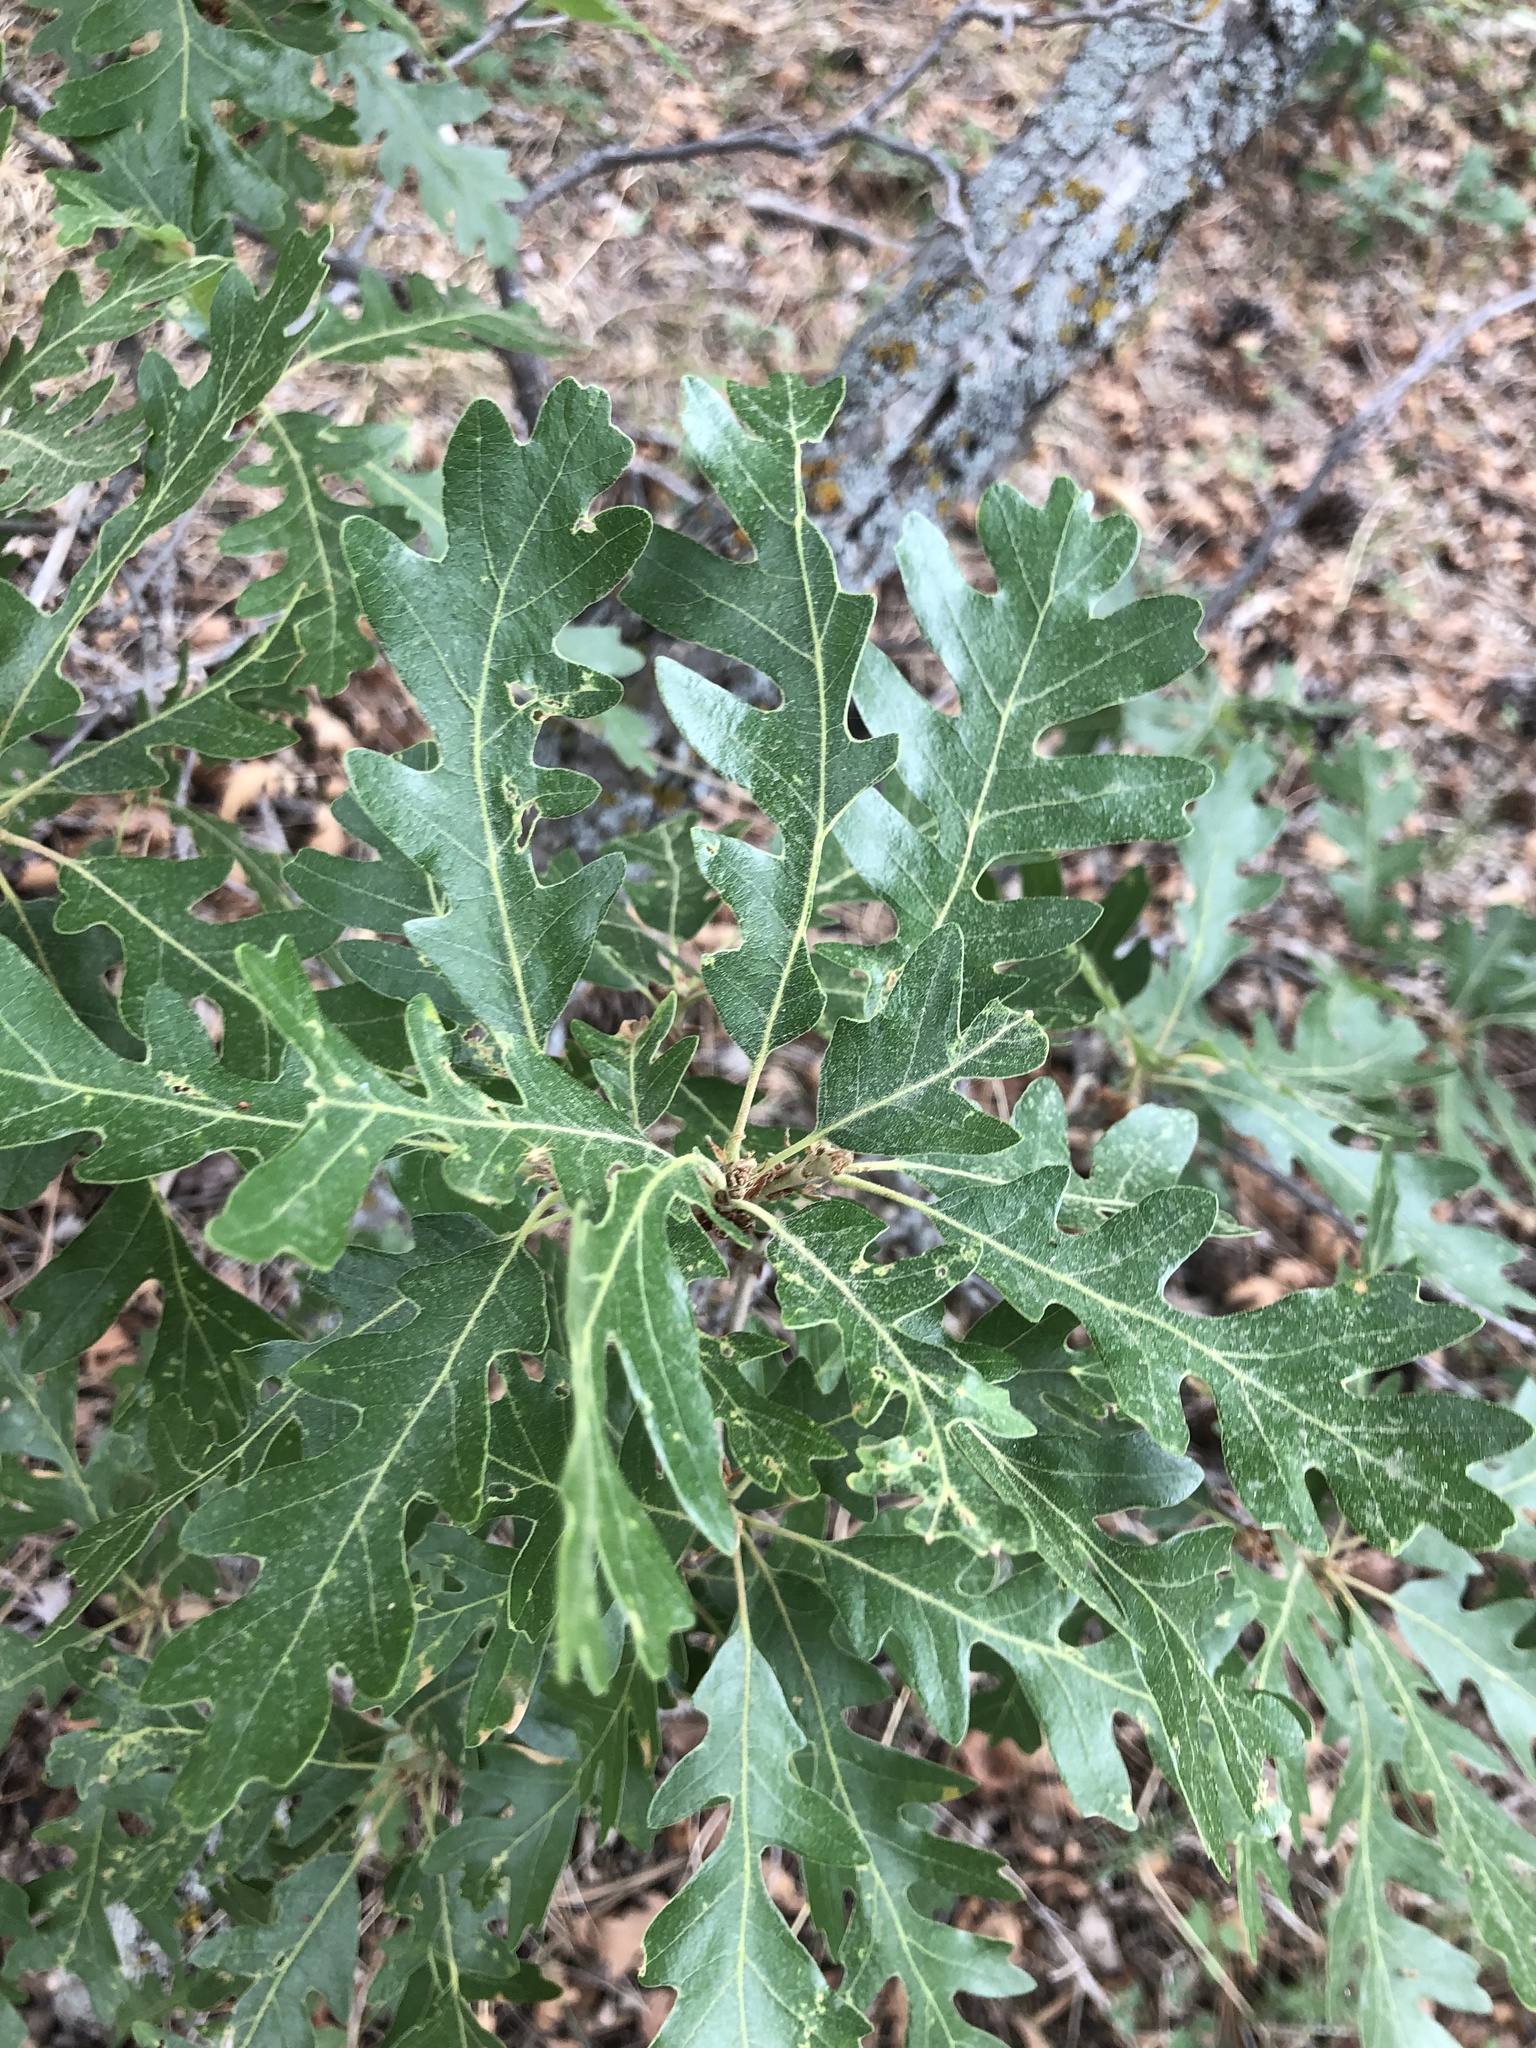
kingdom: Plantae
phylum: Tracheophyta
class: Magnoliopsida
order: Fagales
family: Fagaceae
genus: Quercus
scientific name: Quercus gambelii
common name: Gambel oak
